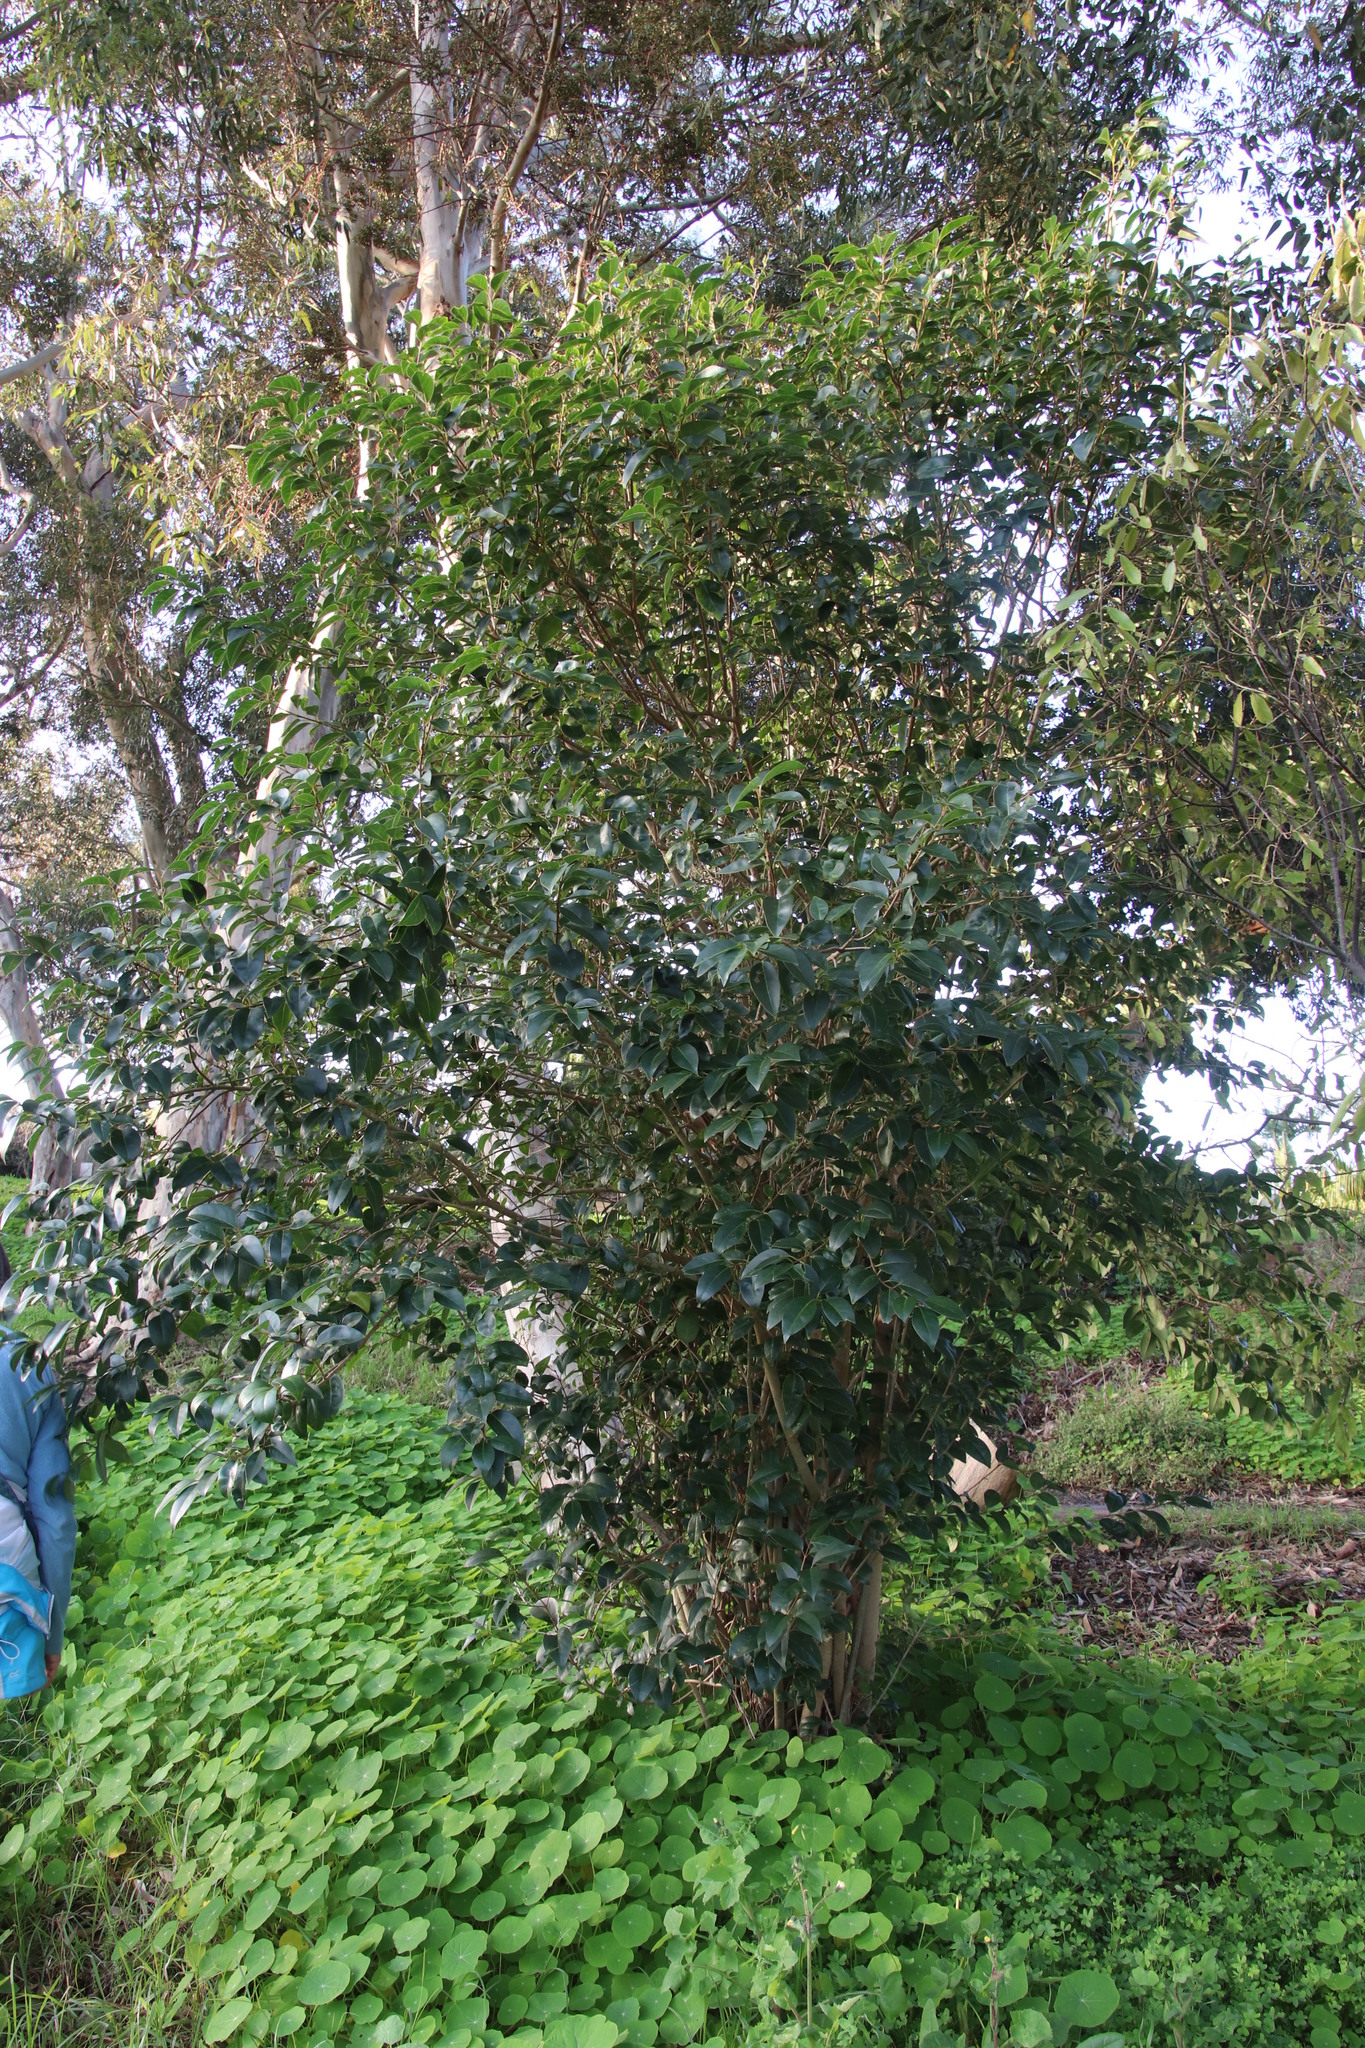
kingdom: Plantae
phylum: Tracheophyta
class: Magnoliopsida
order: Lamiales
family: Oleaceae
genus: Ligustrum
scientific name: Ligustrum lucidum
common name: Glossy privet
